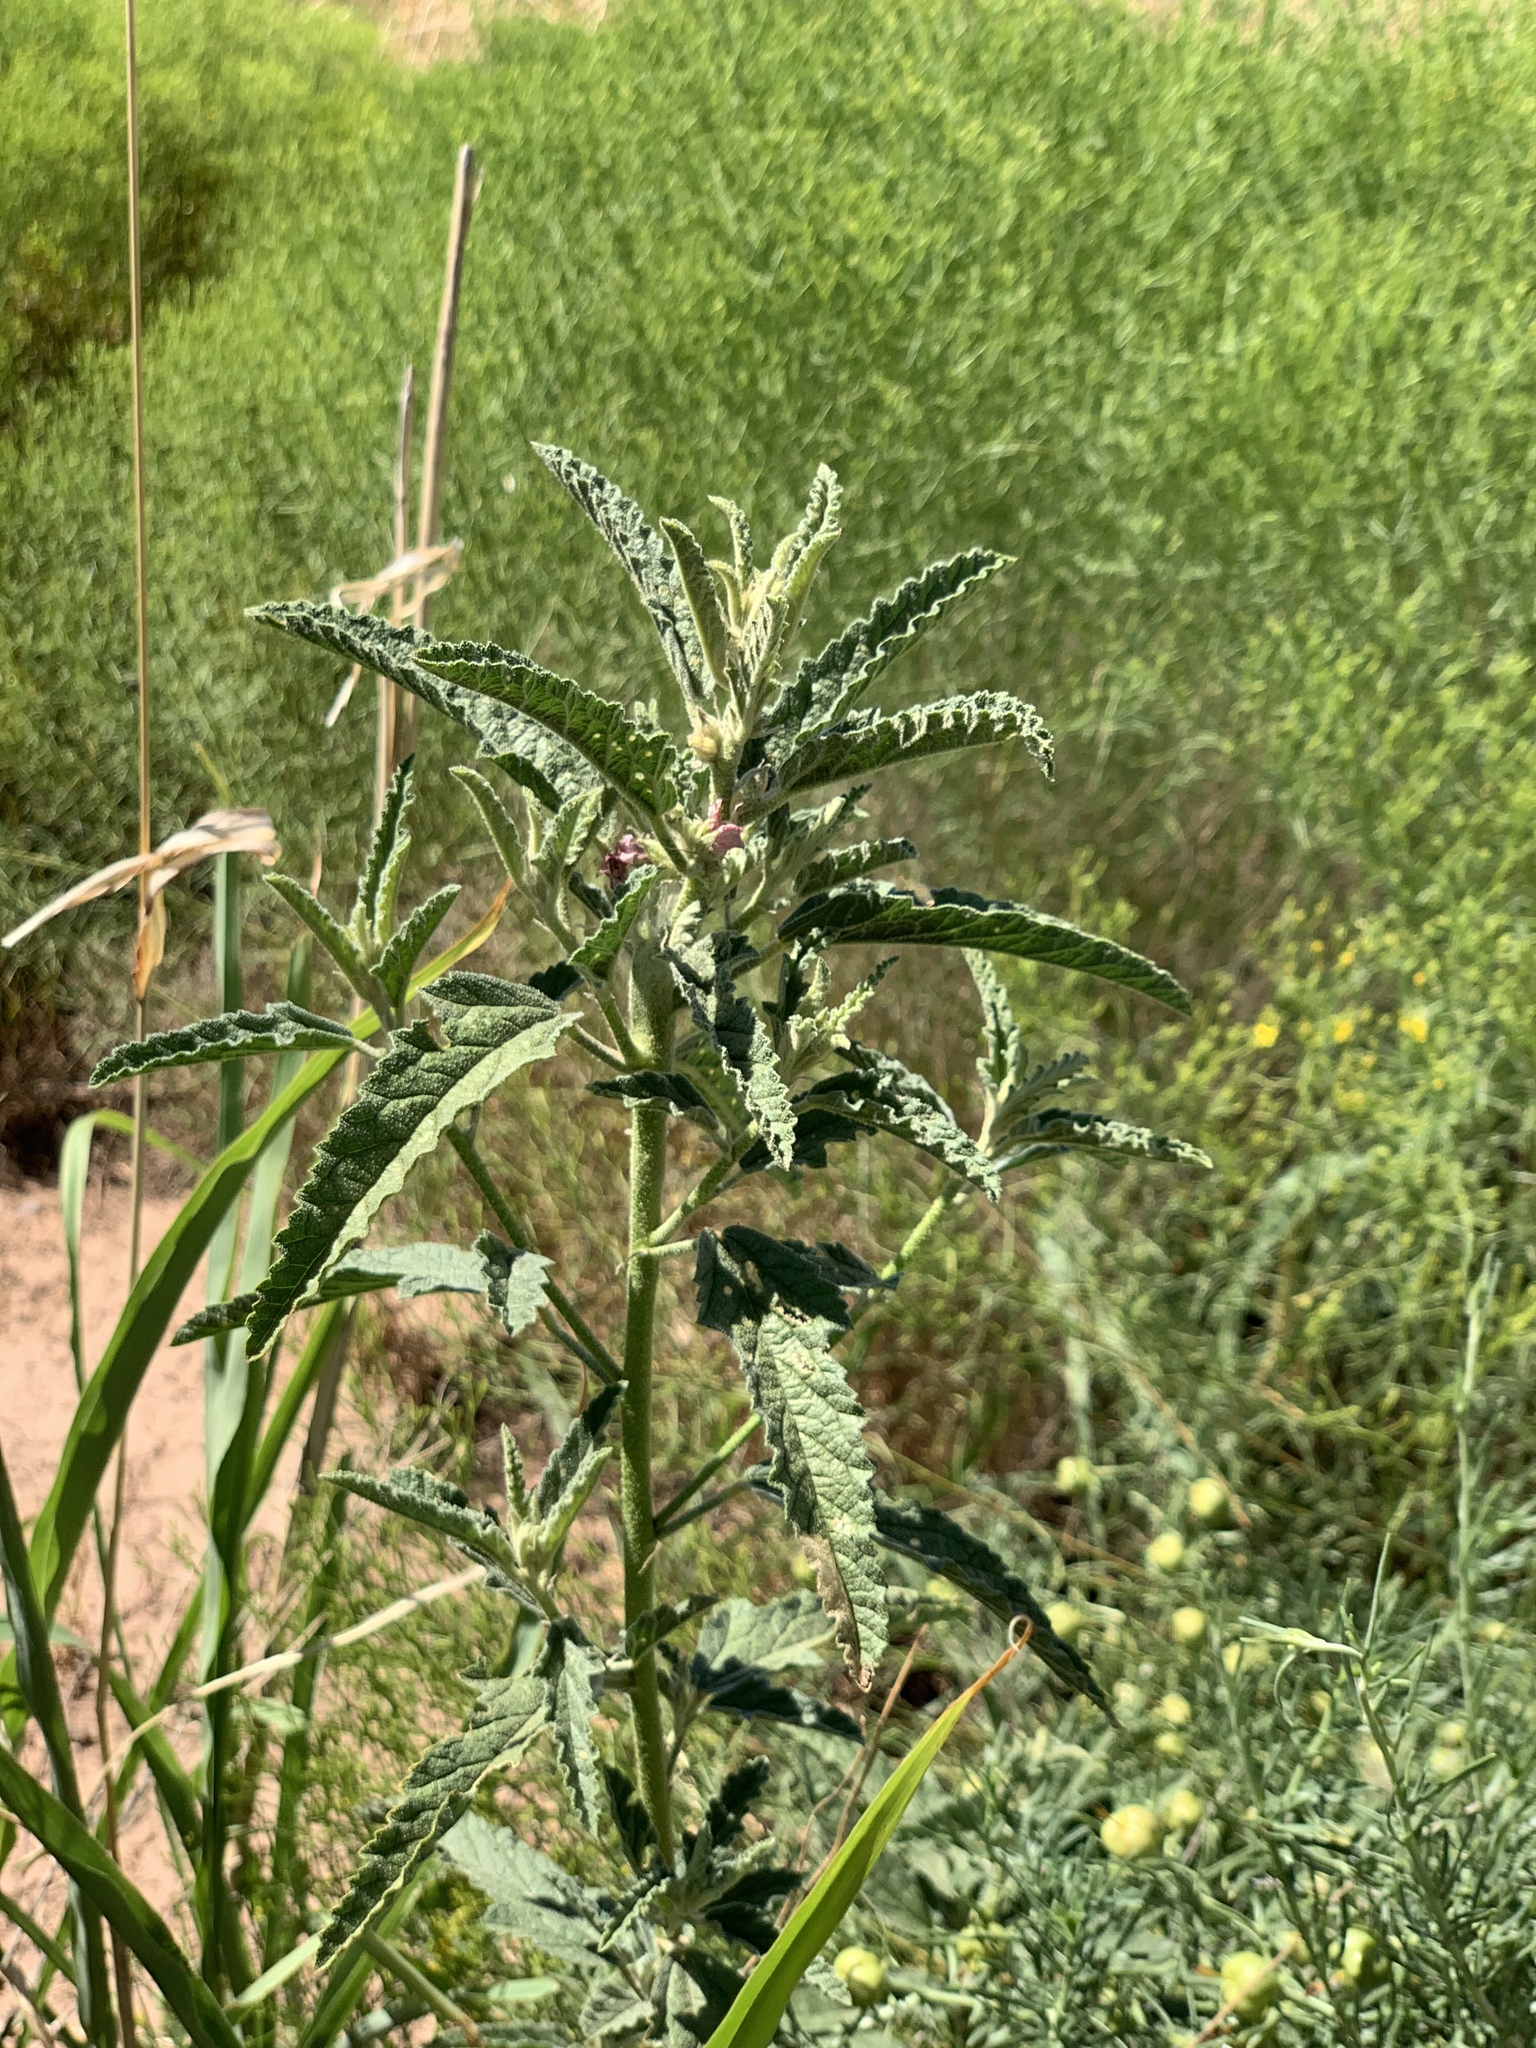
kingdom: Plantae
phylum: Tracheophyta
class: Magnoliopsida
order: Malvales
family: Malvaceae
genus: Sphaeralcea
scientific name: Sphaeralcea angustifolia
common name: Copper globe-mallow
